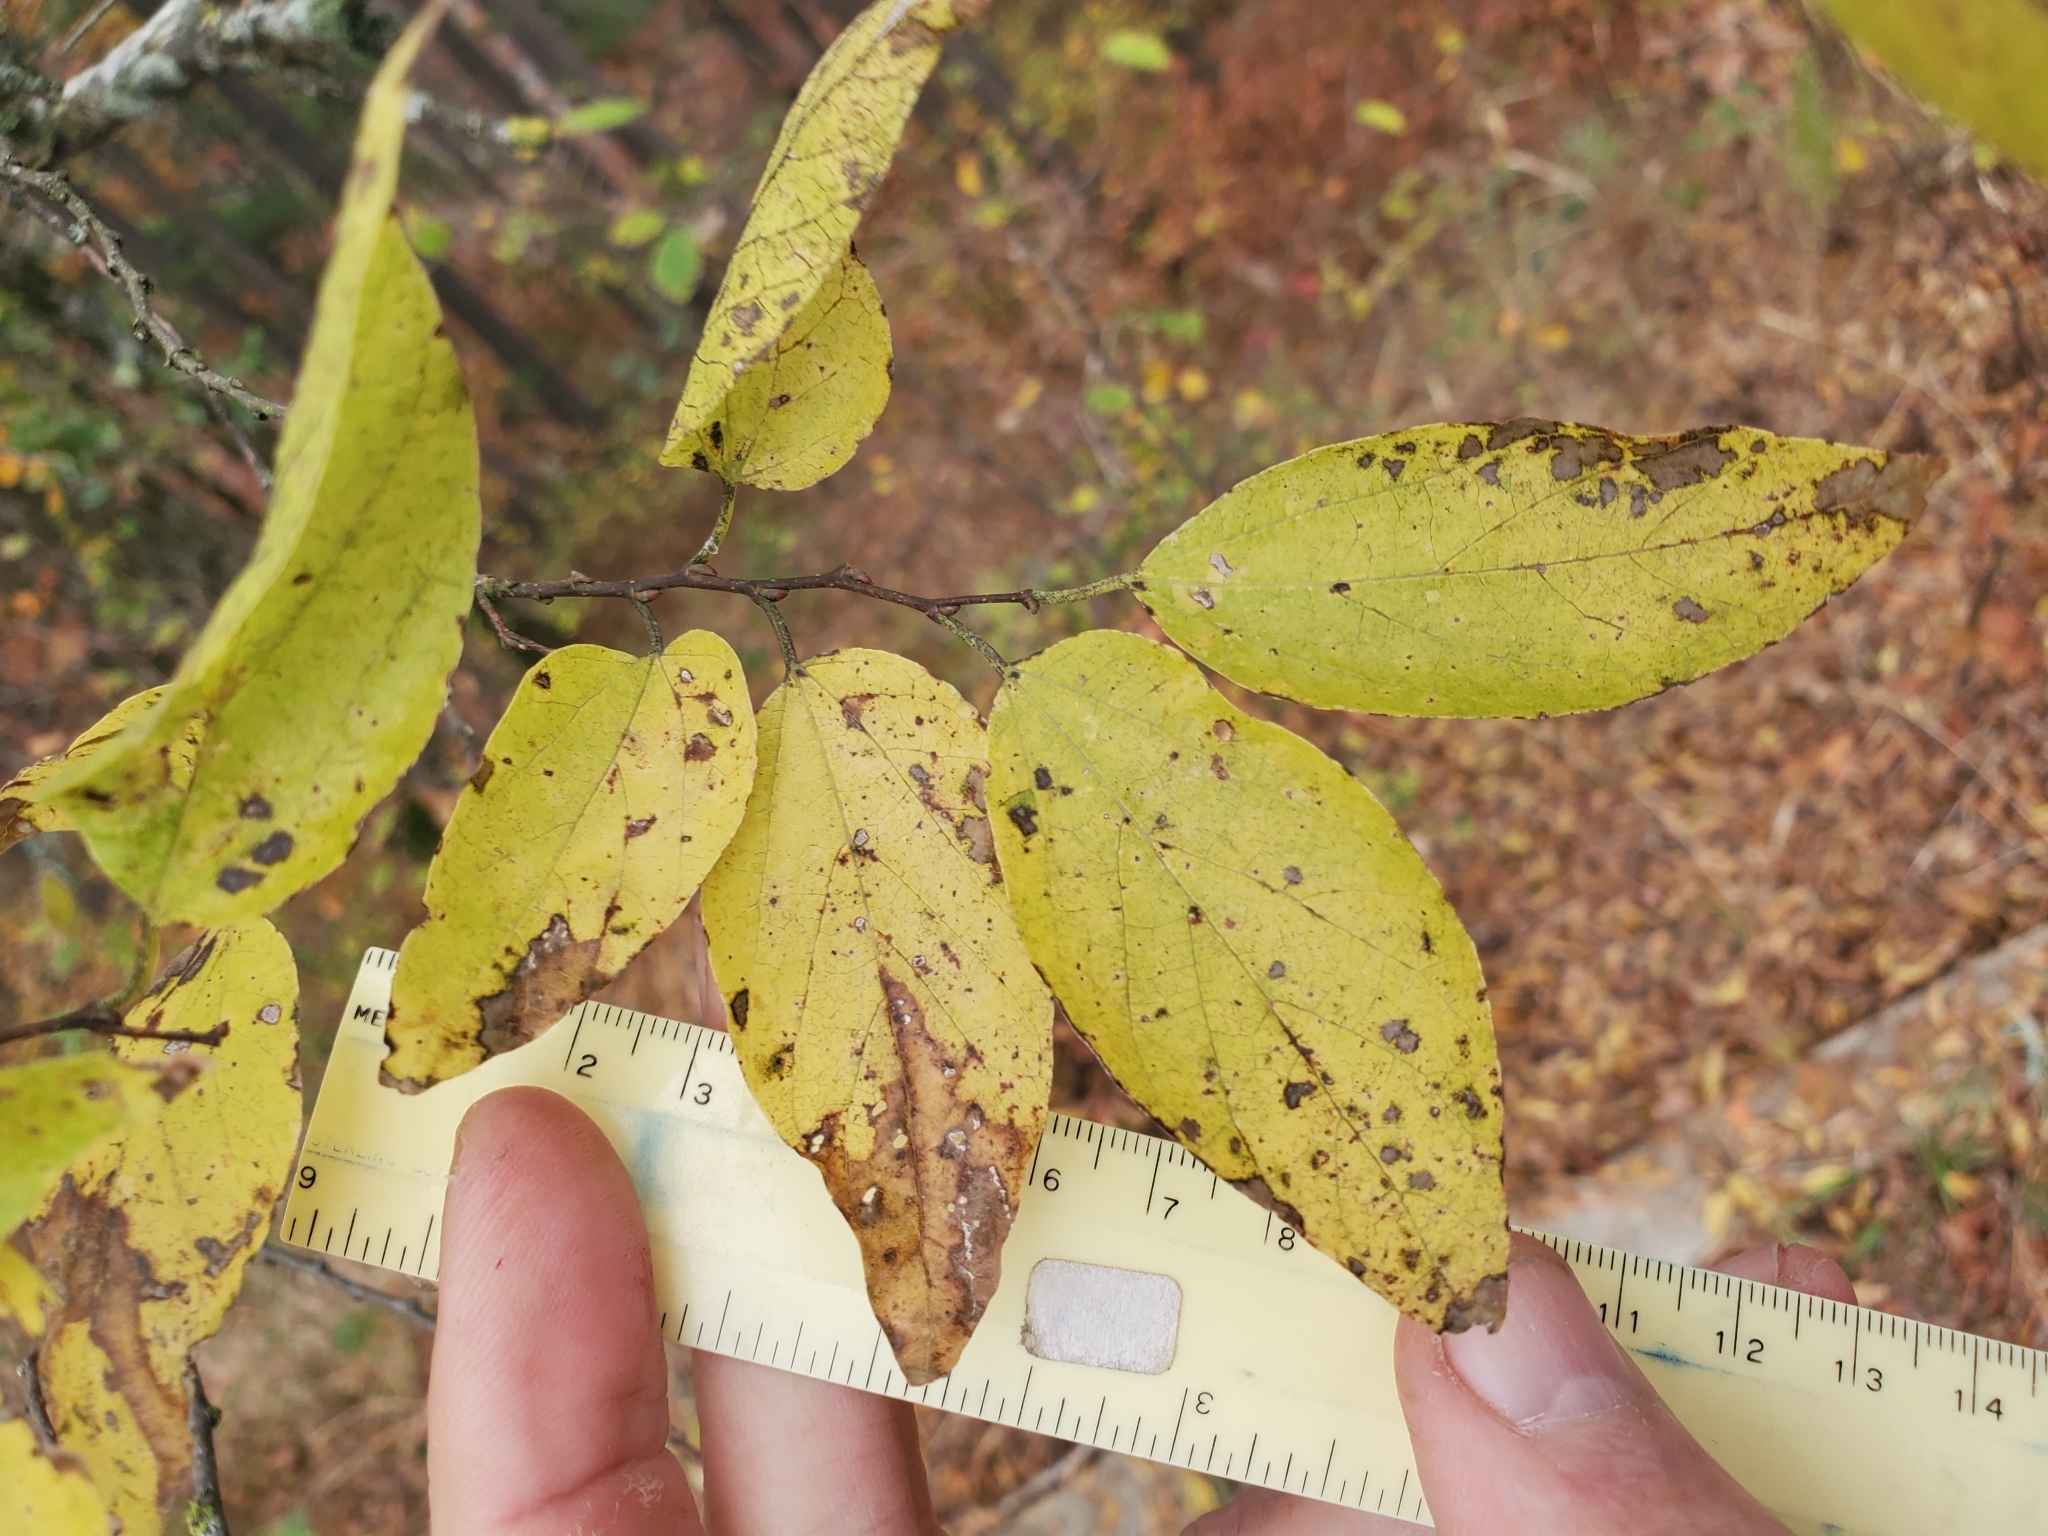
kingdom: Plantae
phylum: Tracheophyta
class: Magnoliopsida
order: Rosales
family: Cannabaceae
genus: Celtis
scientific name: Celtis laevigata
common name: Sugarberry
